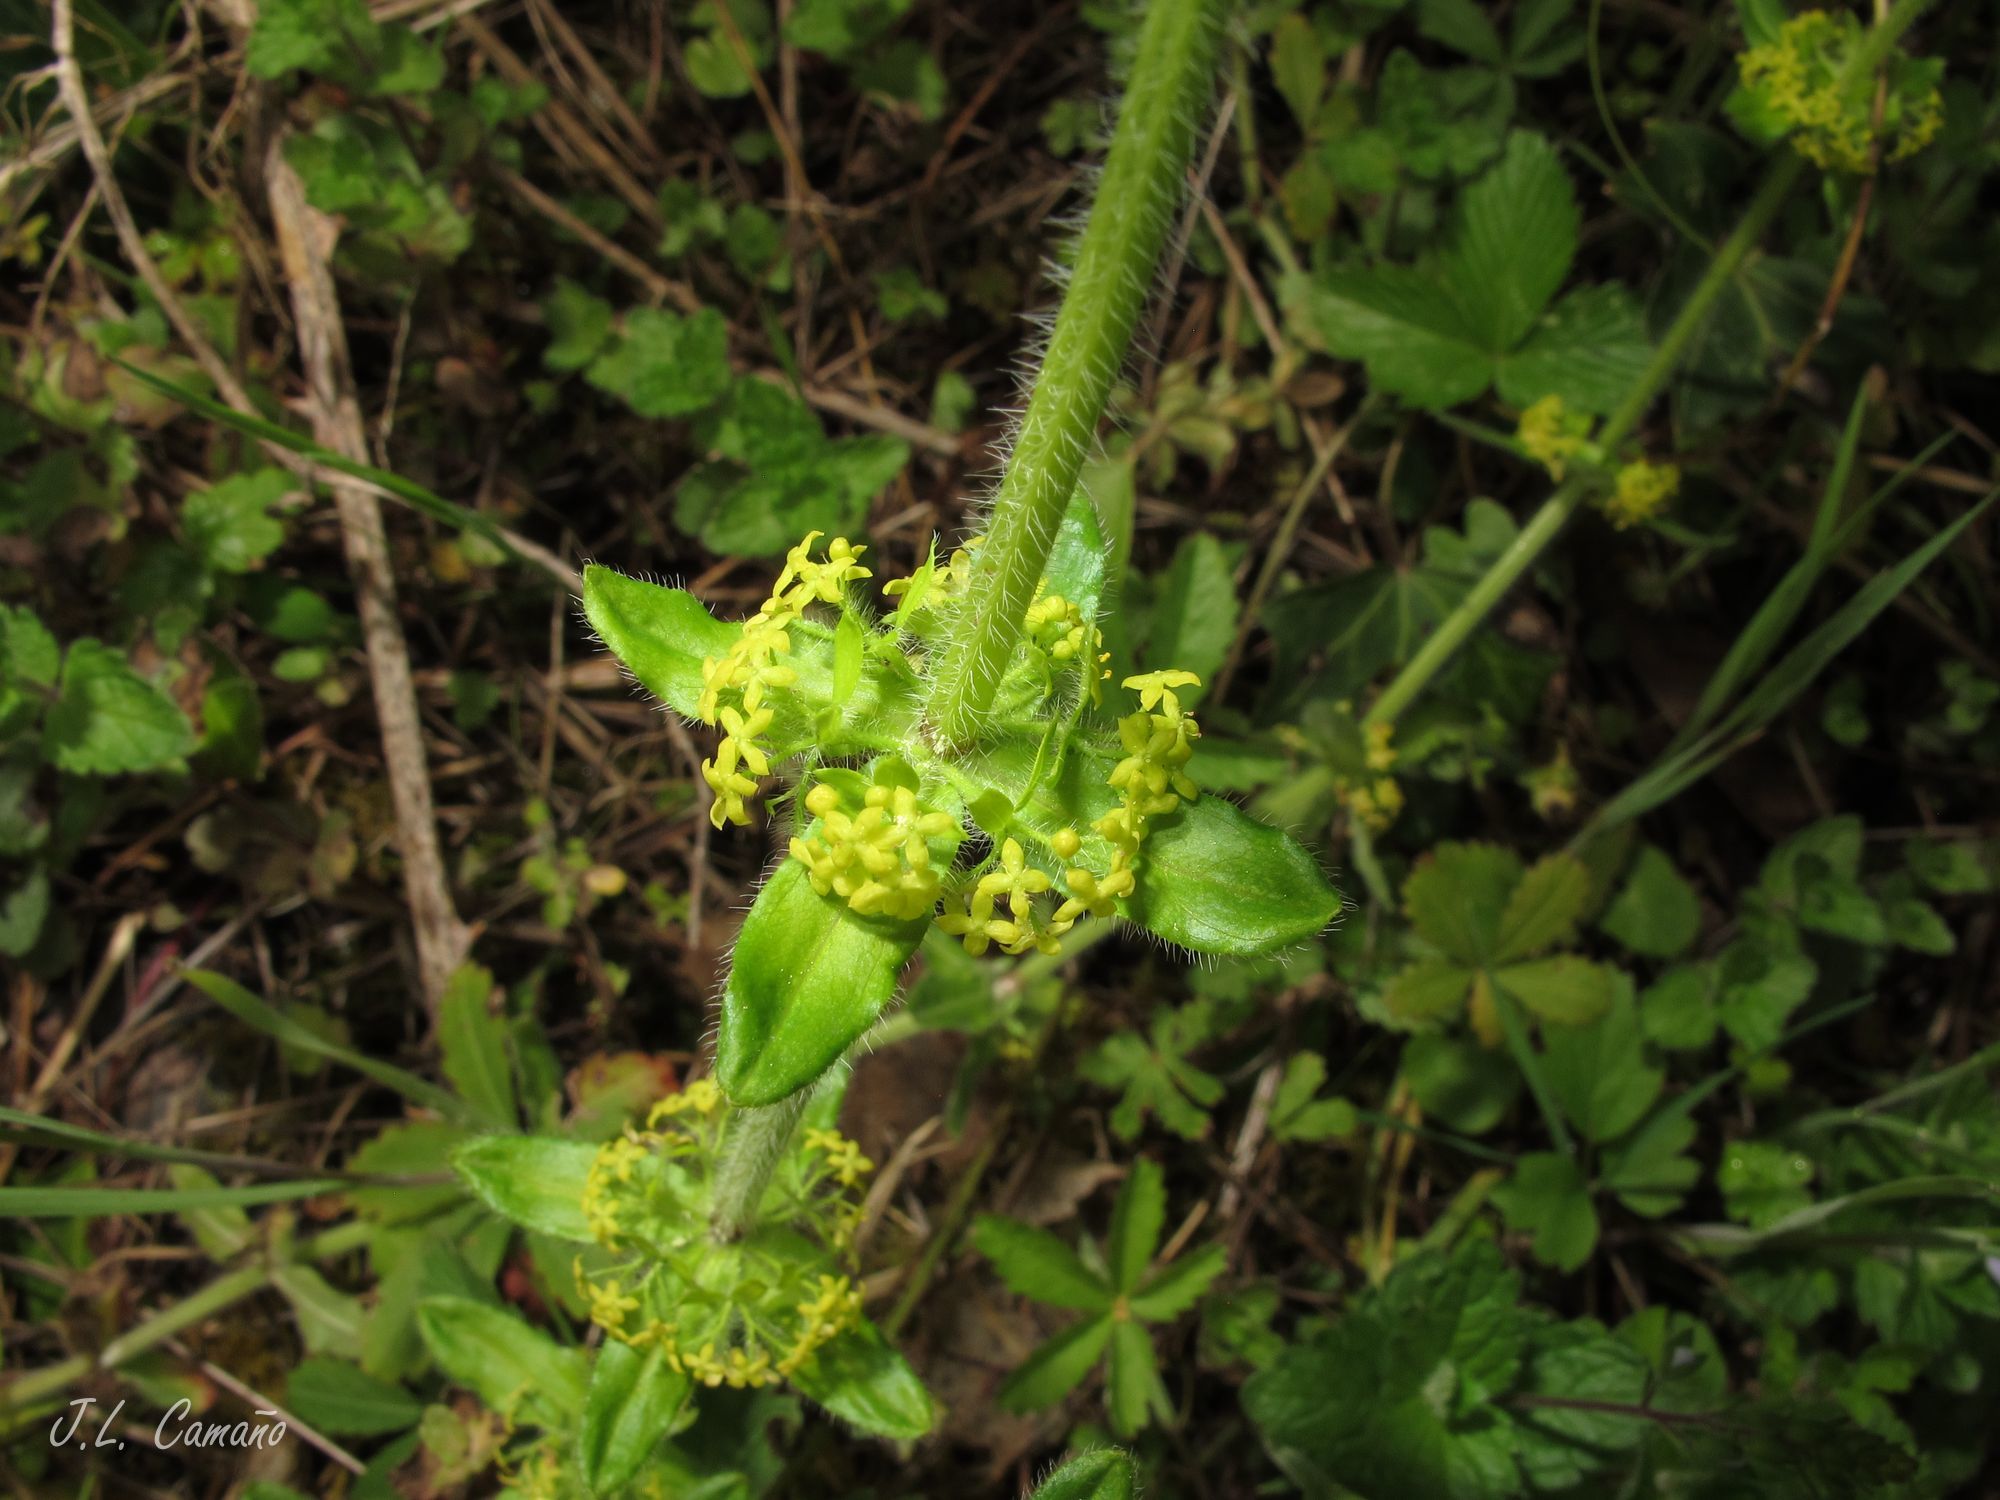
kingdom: Plantae
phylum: Tracheophyta
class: Magnoliopsida
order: Gentianales
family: Rubiaceae
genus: Cruciata
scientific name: Cruciata laevipes
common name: Crosswort
